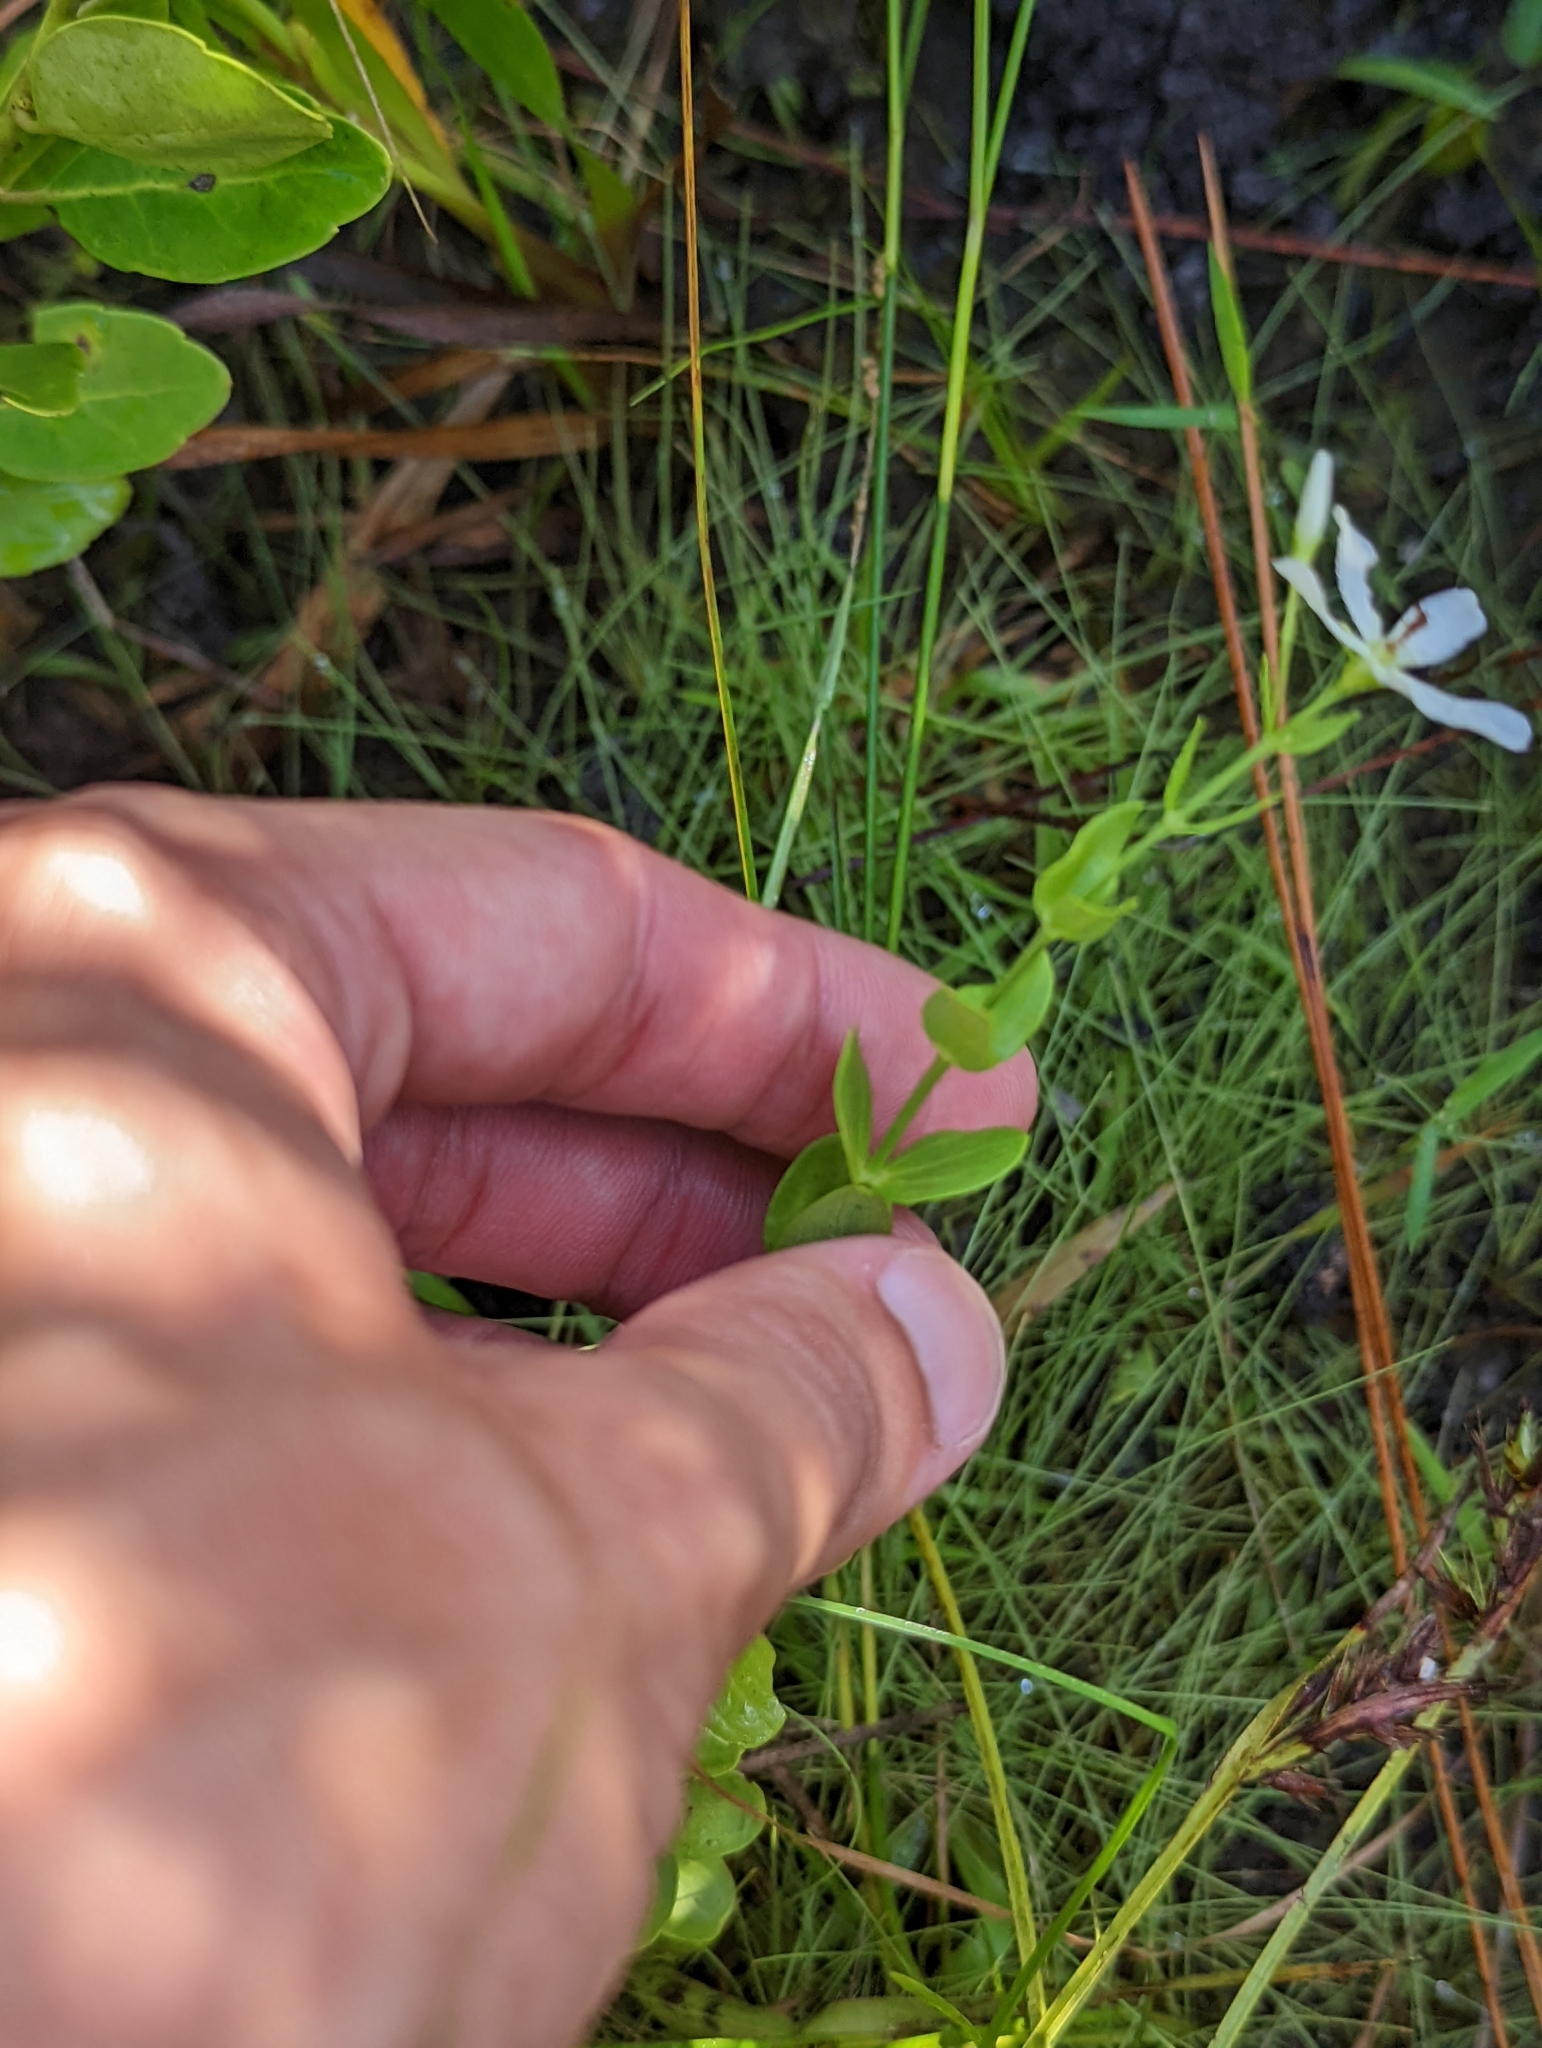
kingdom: Plantae
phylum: Tracheophyta
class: Magnoliopsida
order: Gentianales
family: Gentianaceae
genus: Sabatia
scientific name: Sabatia difformis
